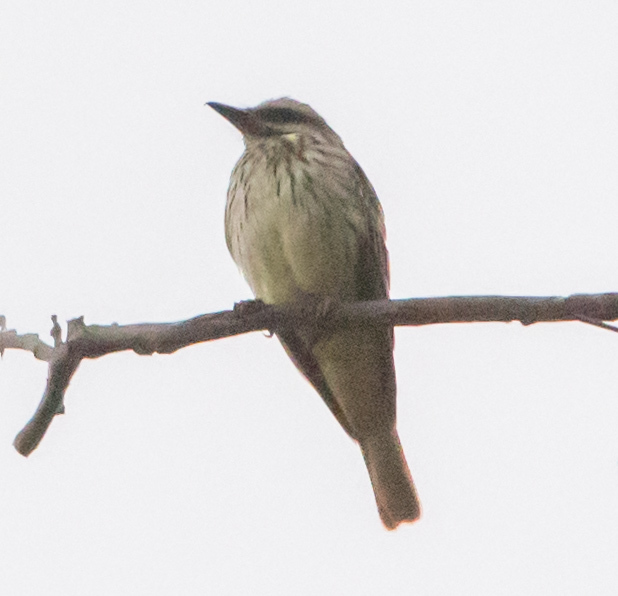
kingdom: Animalia
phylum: Chordata
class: Aves
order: Passeriformes
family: Tyrannidae
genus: Myiodynastes
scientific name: Myiodynastes luteiventris
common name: Sulphur-bellied flycatcher
